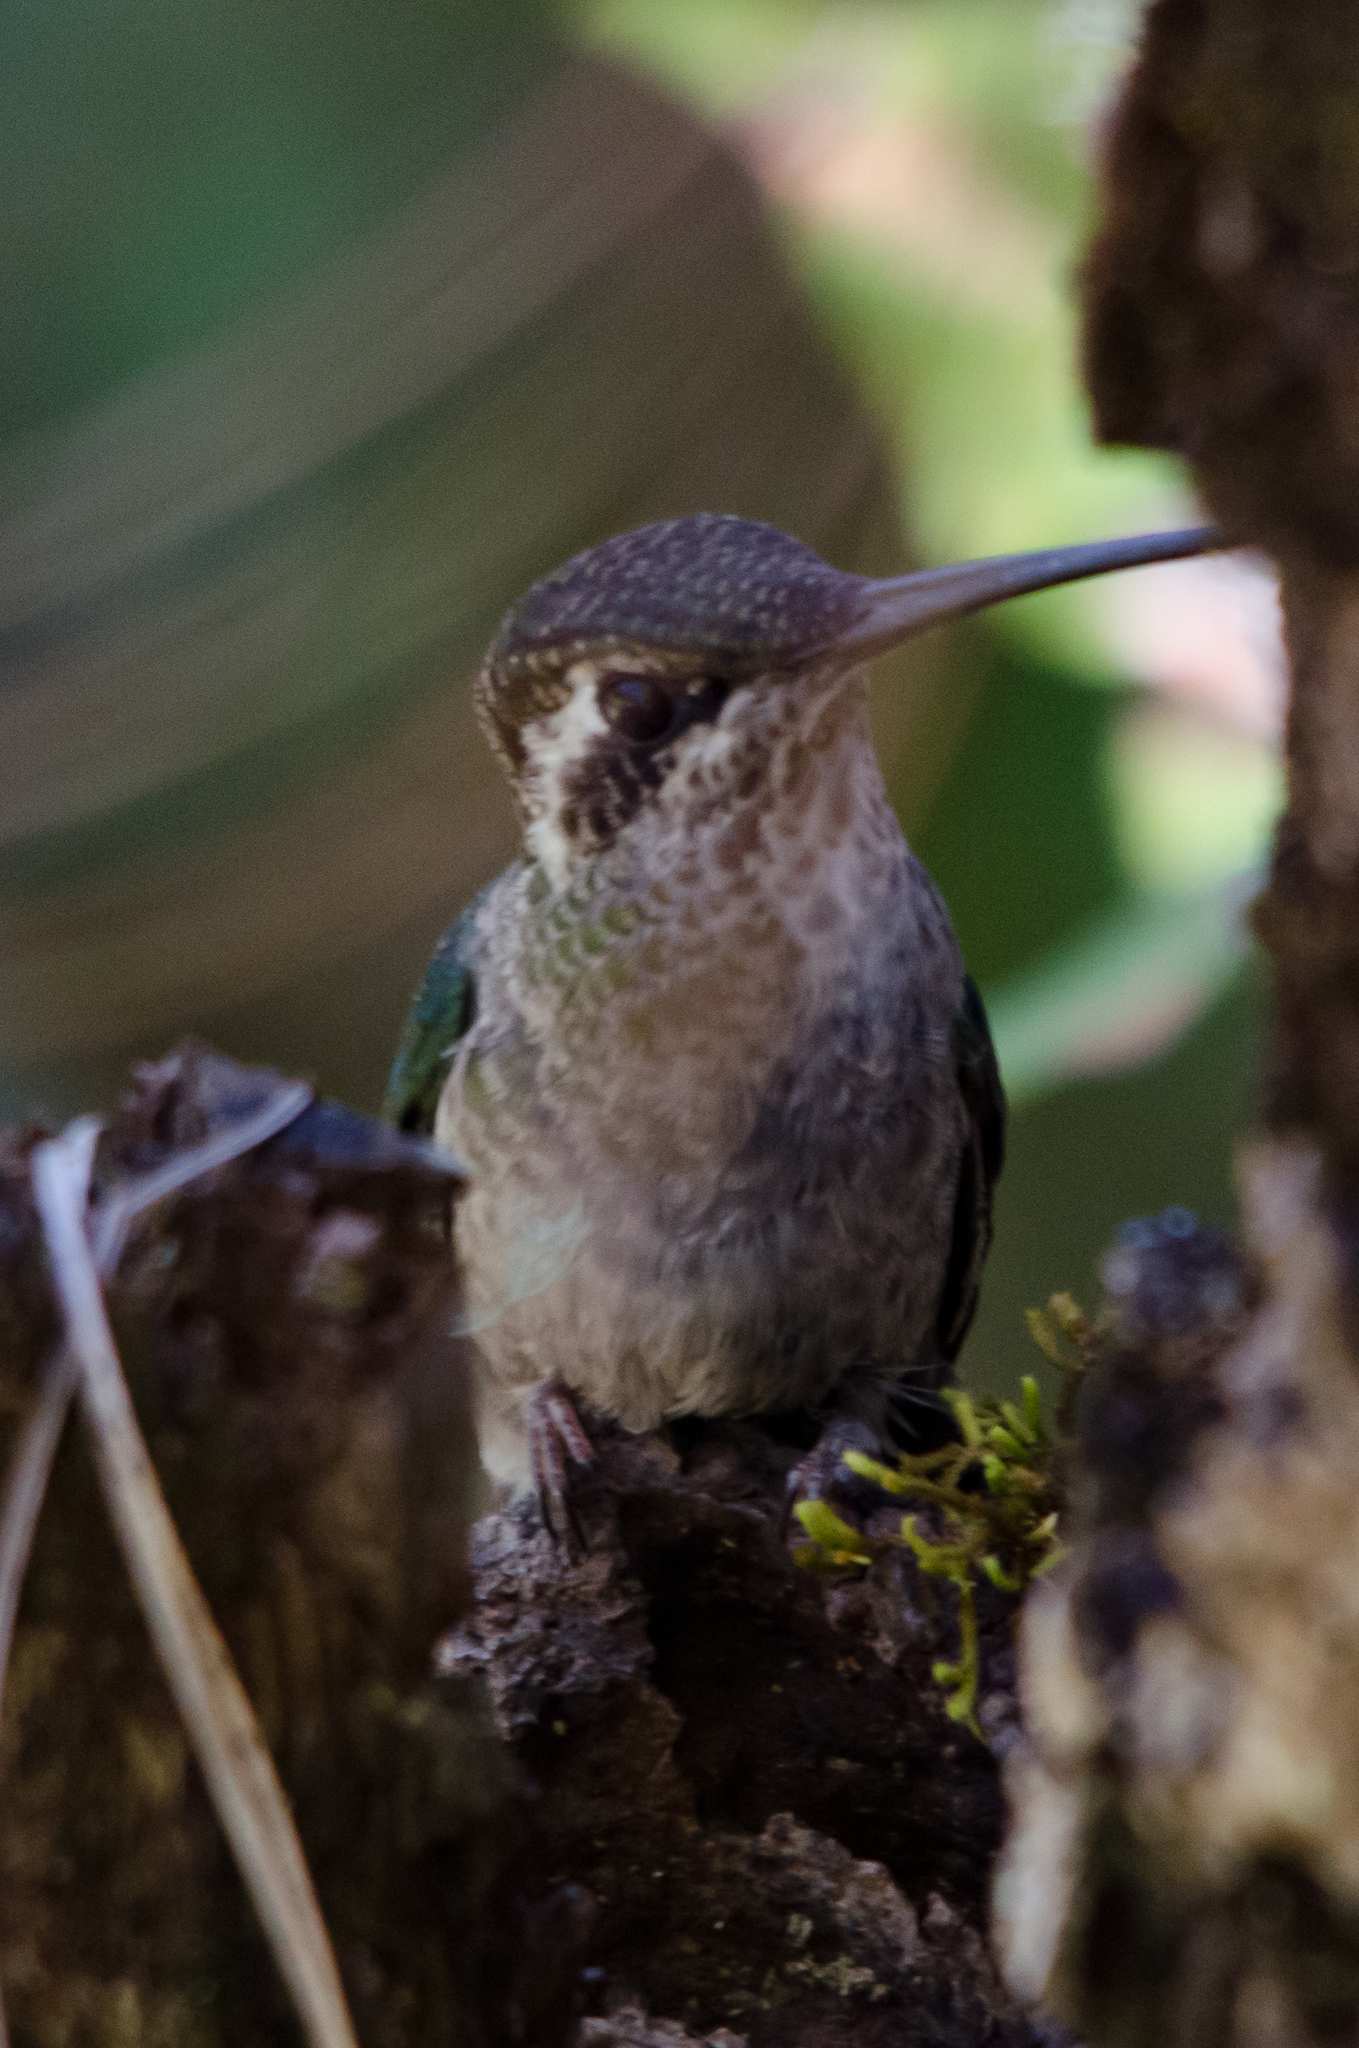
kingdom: Animalia
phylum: Chordata
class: Aves
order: Apodiformes
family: Trochilidae
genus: Eugenes
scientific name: Eugenes fulgens
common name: Magnificent hummingbird
